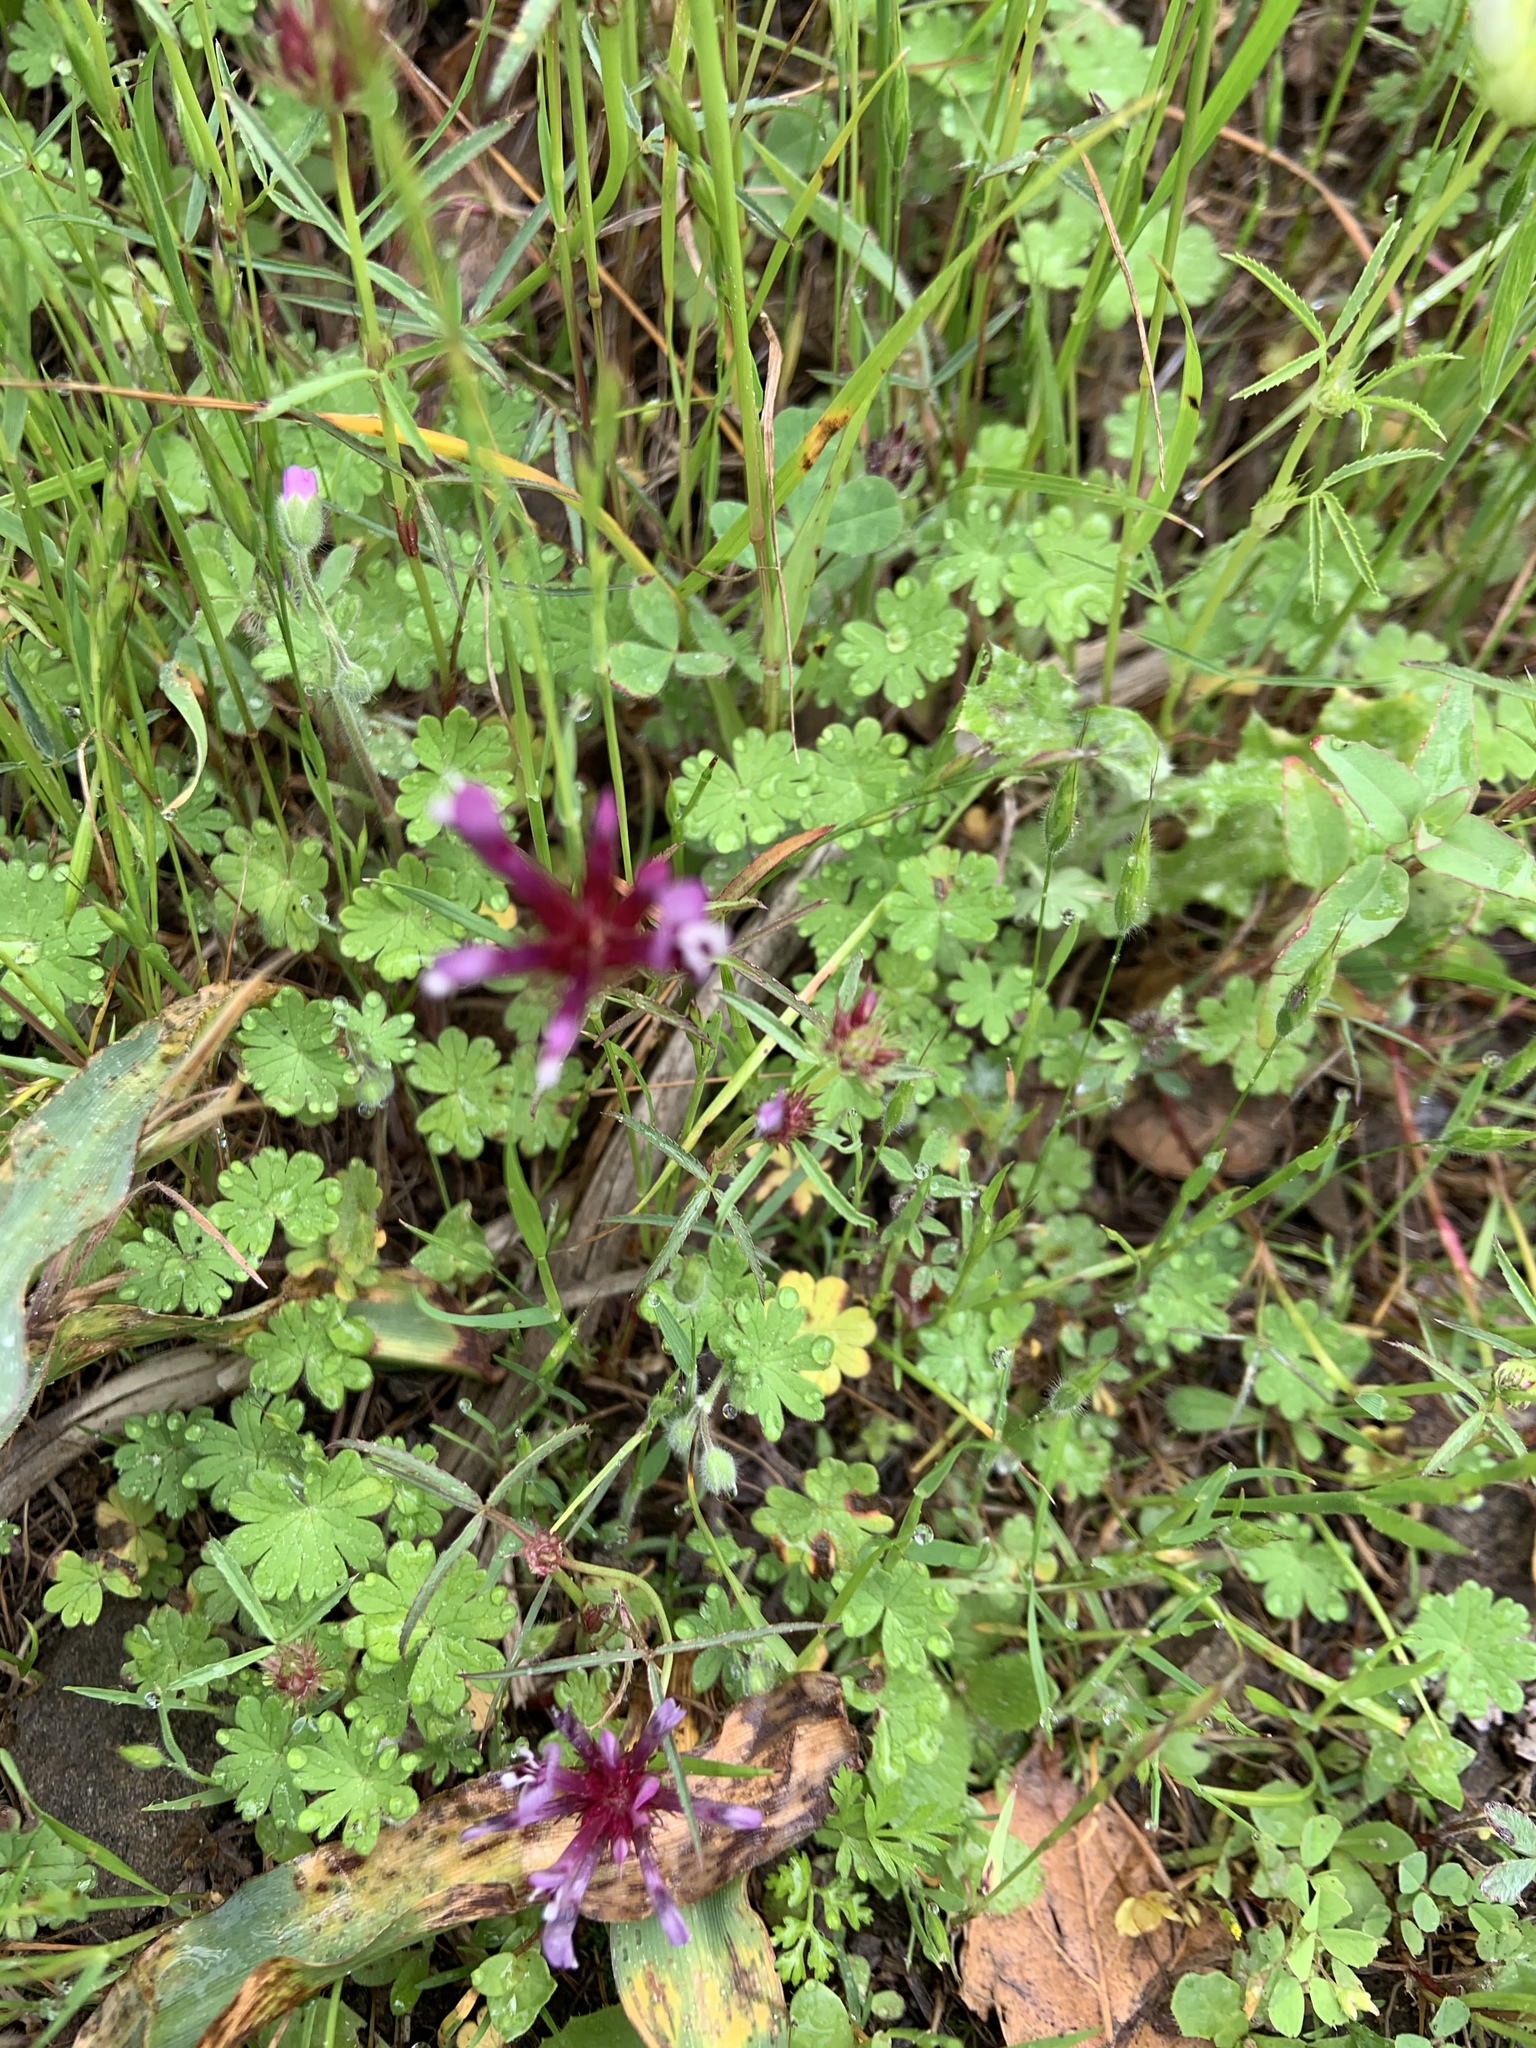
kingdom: Plantae
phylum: Tracheophyta
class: Magnoliopsida
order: Fabales
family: Fabaceae
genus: Trifolium
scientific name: Trifolium willdenovii
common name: Tomcat clover
